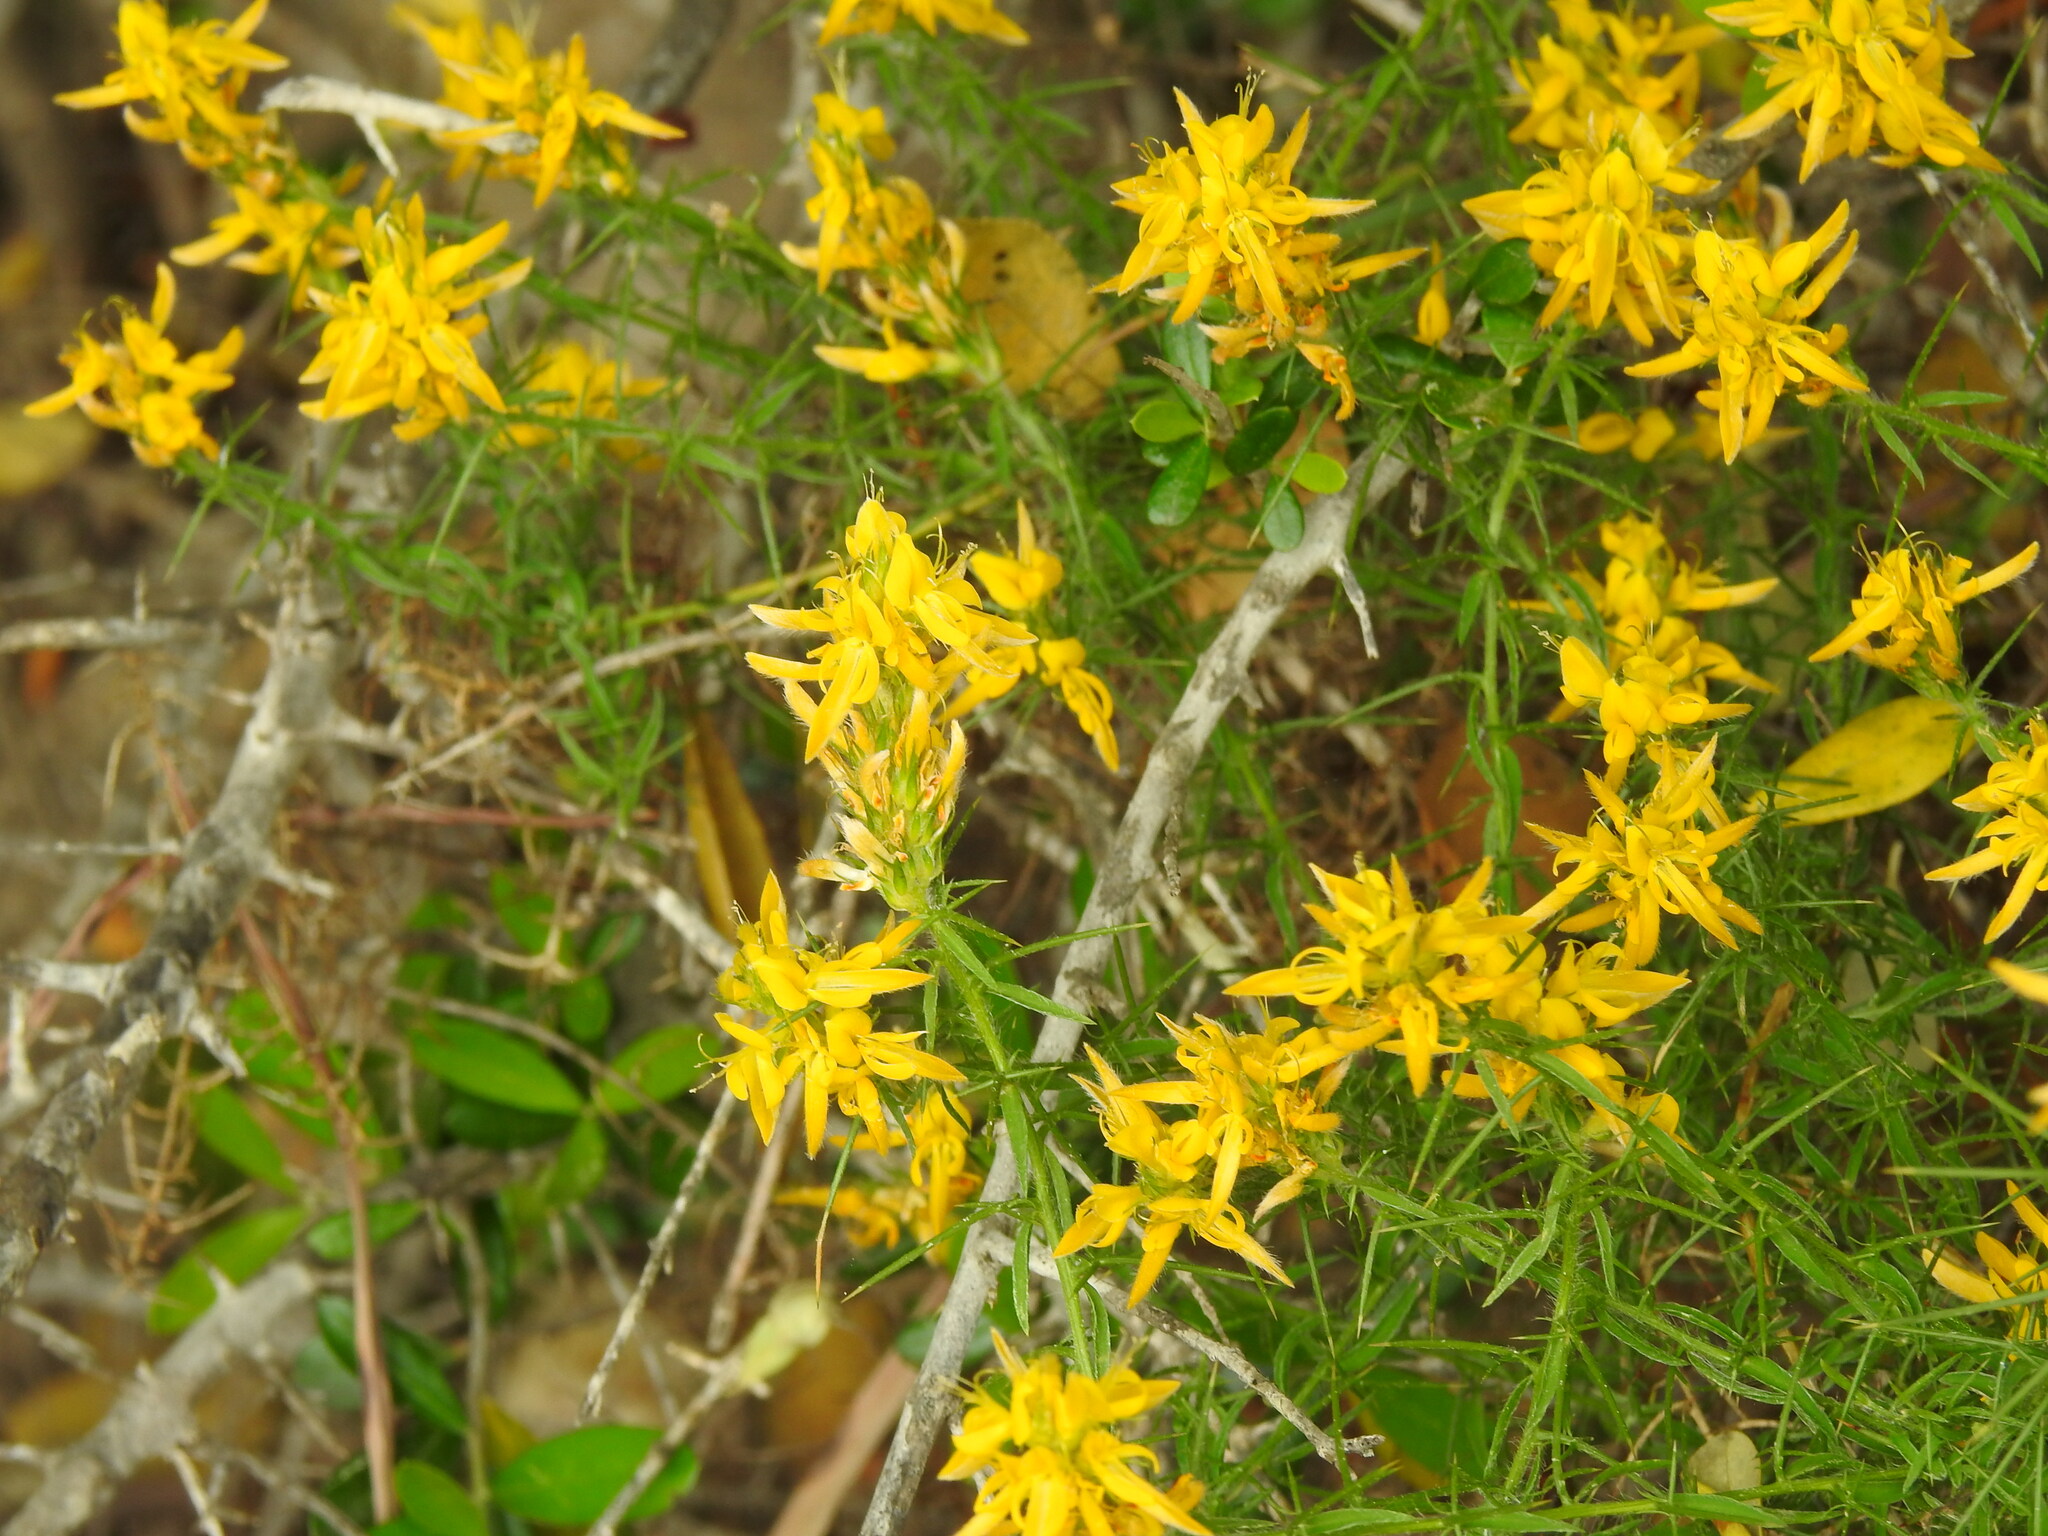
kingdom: Plantae
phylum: Tracheophyta
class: Magnoliopsida
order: Fabales
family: Fabaceae
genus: Genista
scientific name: Genista hirsuta
